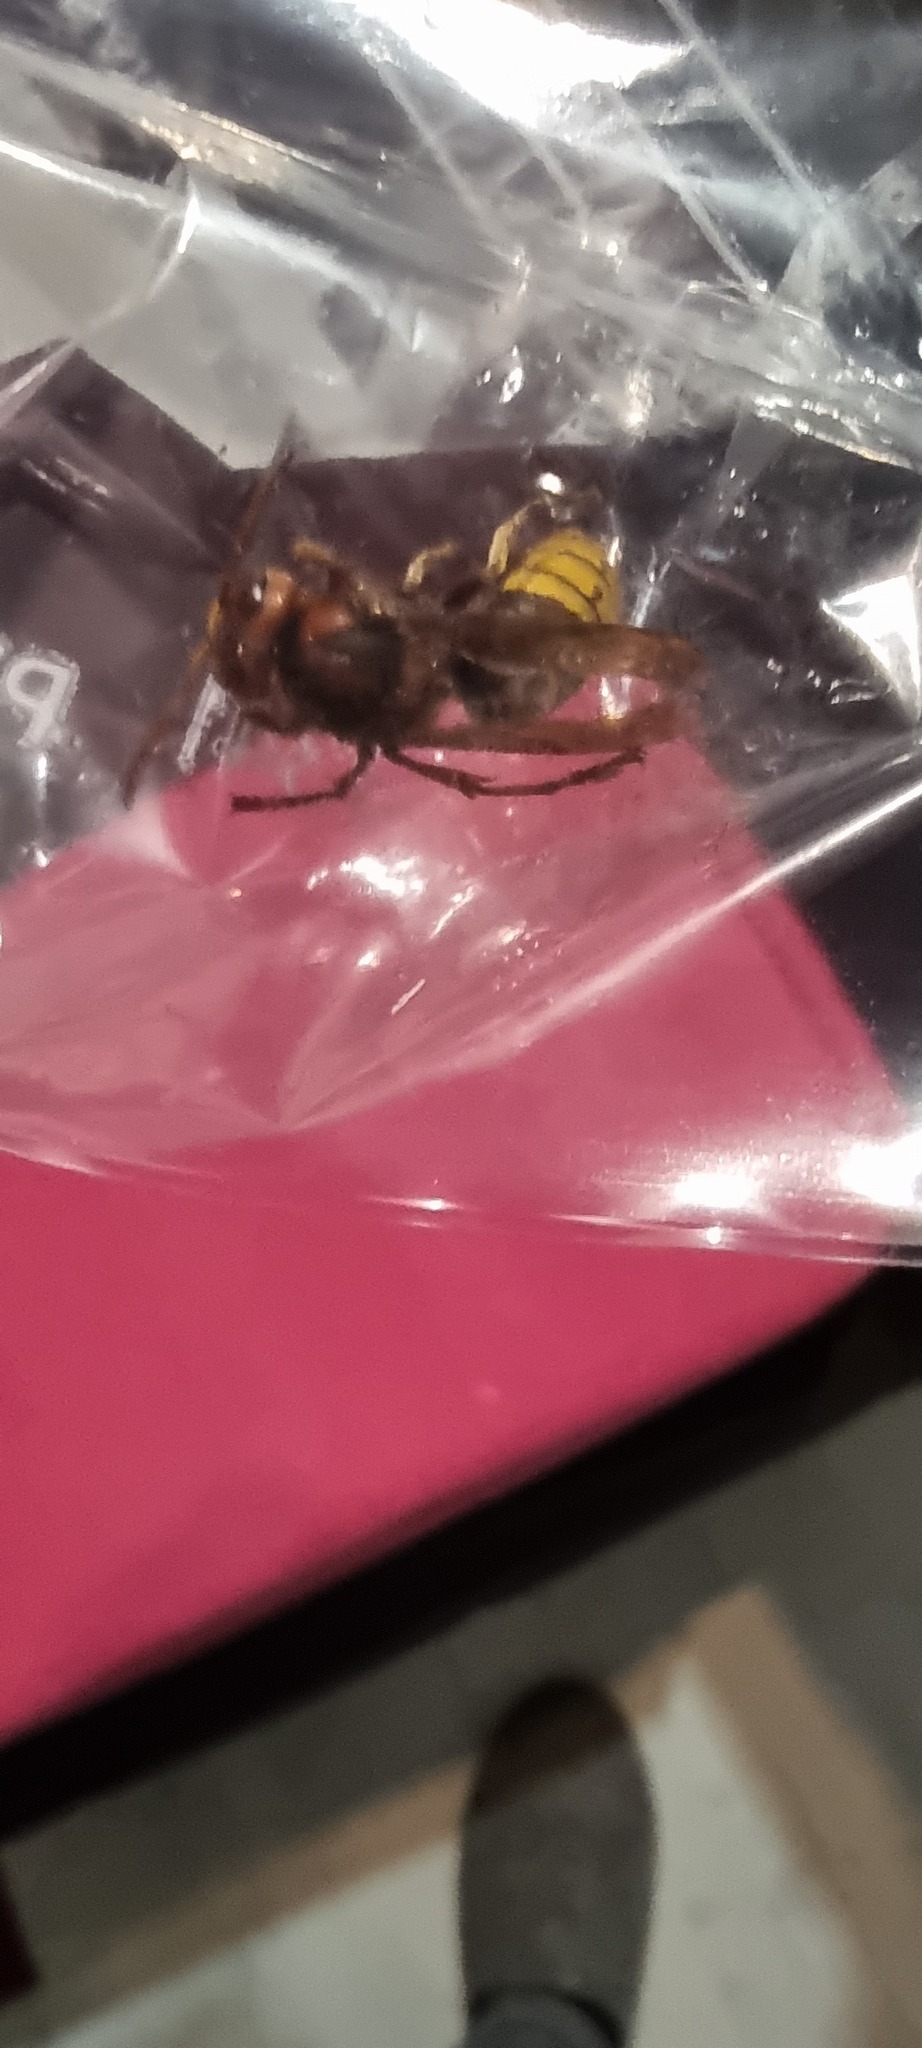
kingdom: Animalia
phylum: Arthropoda
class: Insecta
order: Hymenoptera
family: Vespidae
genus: Vespa
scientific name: Vespa crabro
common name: Hornet
